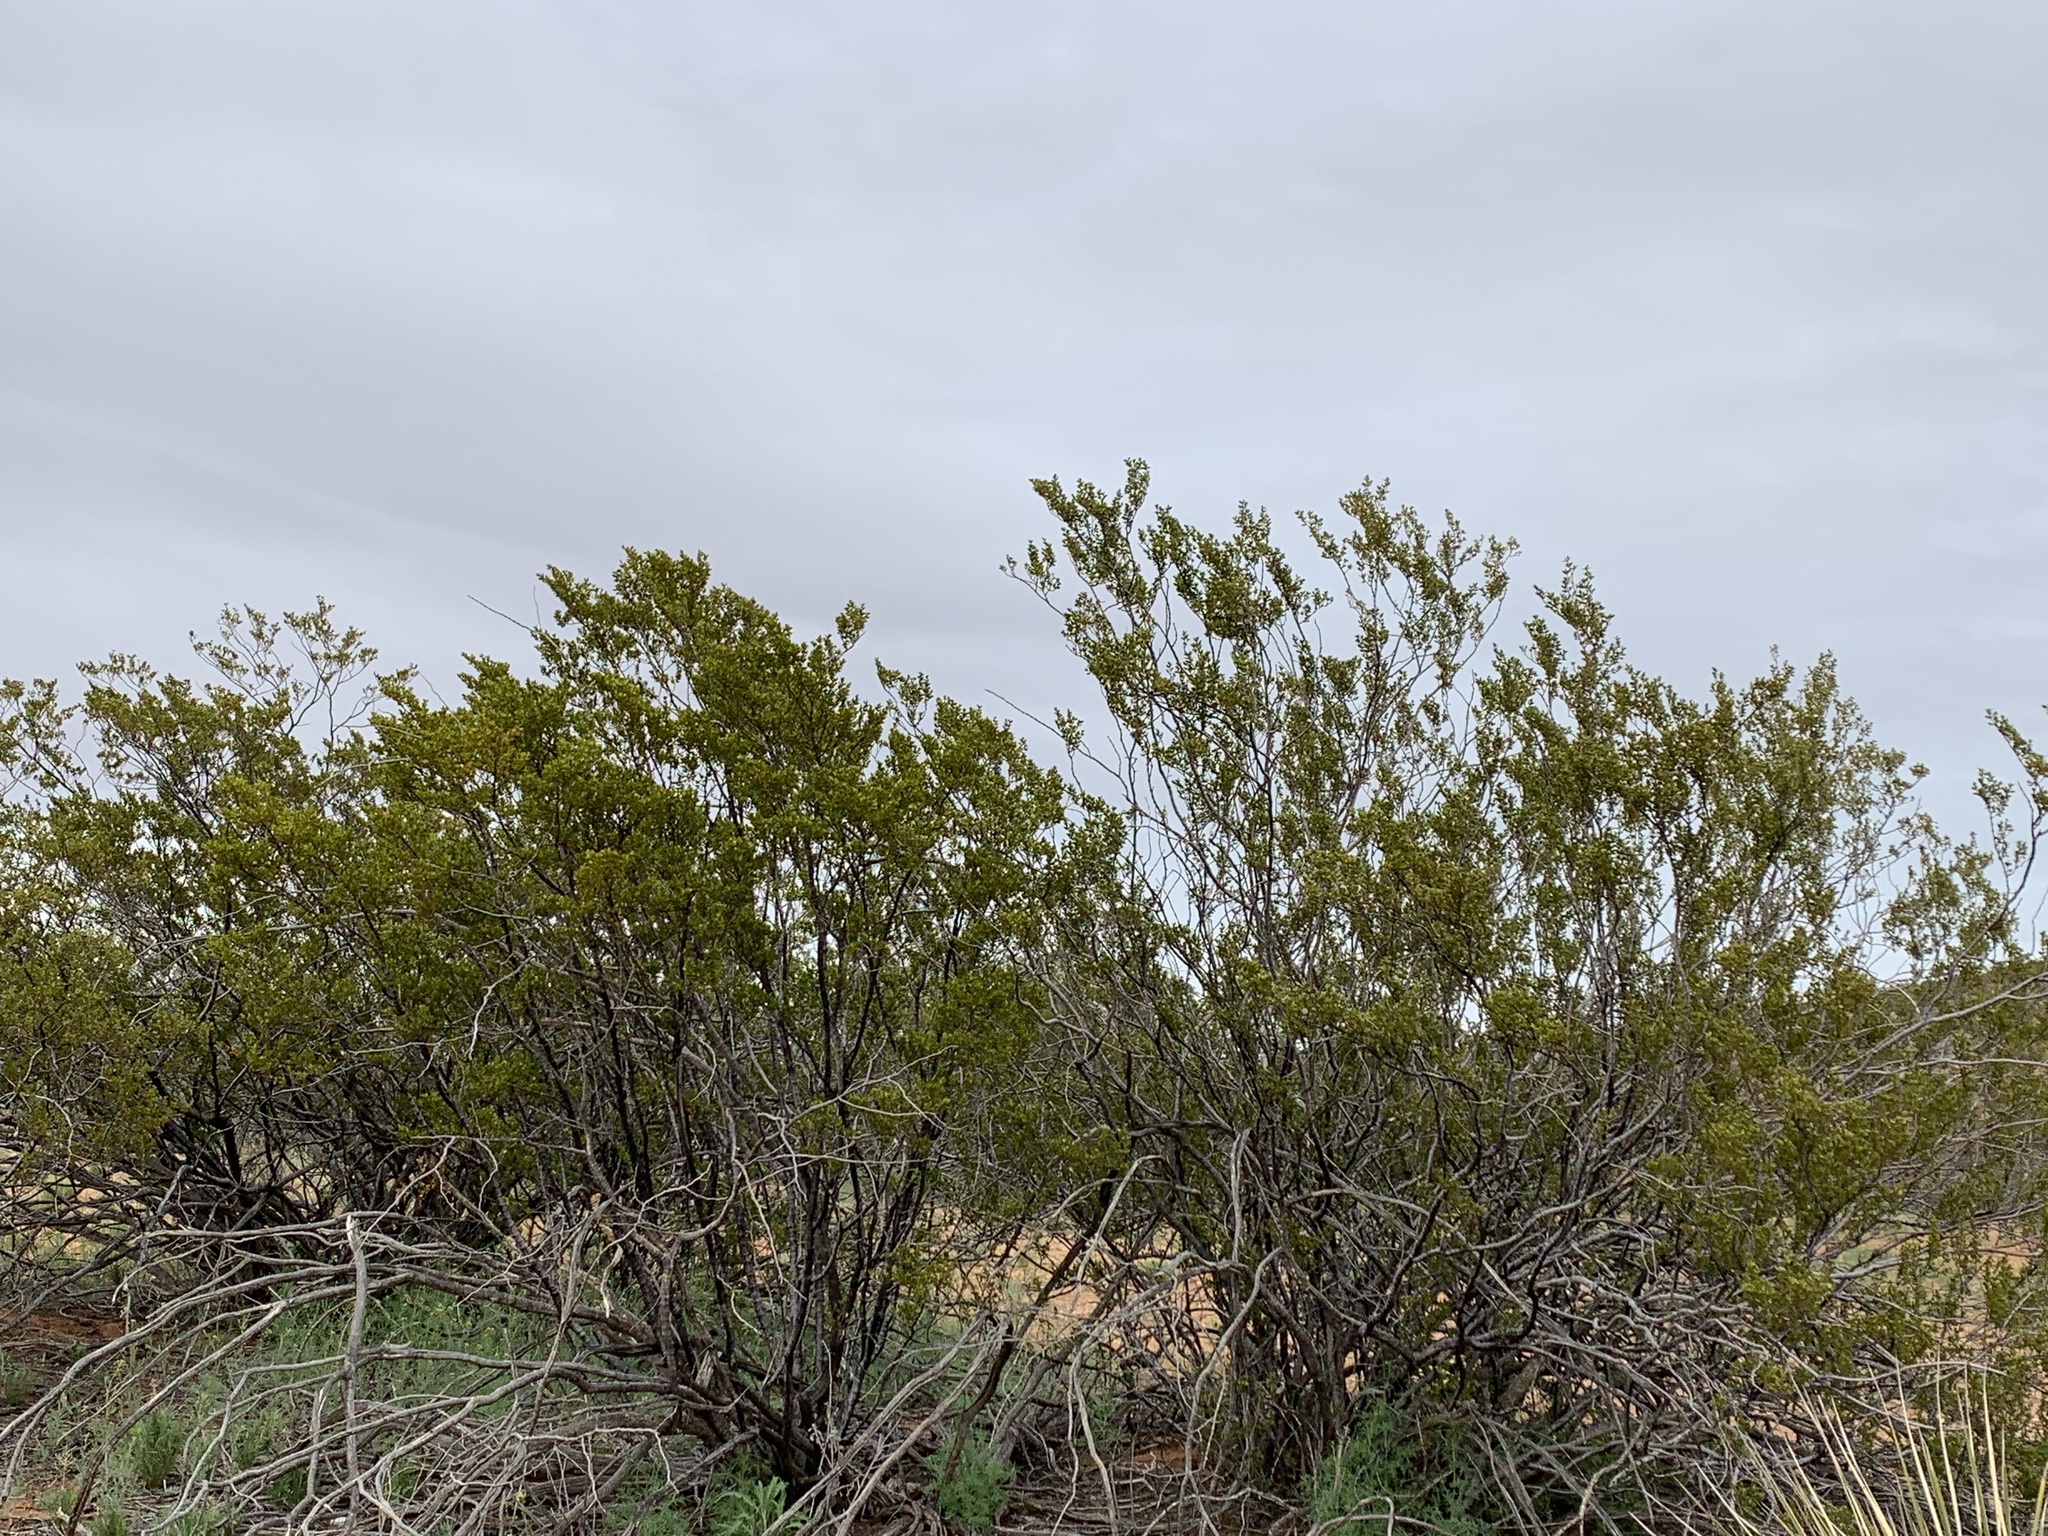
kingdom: Plantae
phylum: Tracheophyta
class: Magnoliopsida
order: Zygophyllales
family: Zygophyllaceae
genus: Larrea
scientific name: Larrea tridentata
